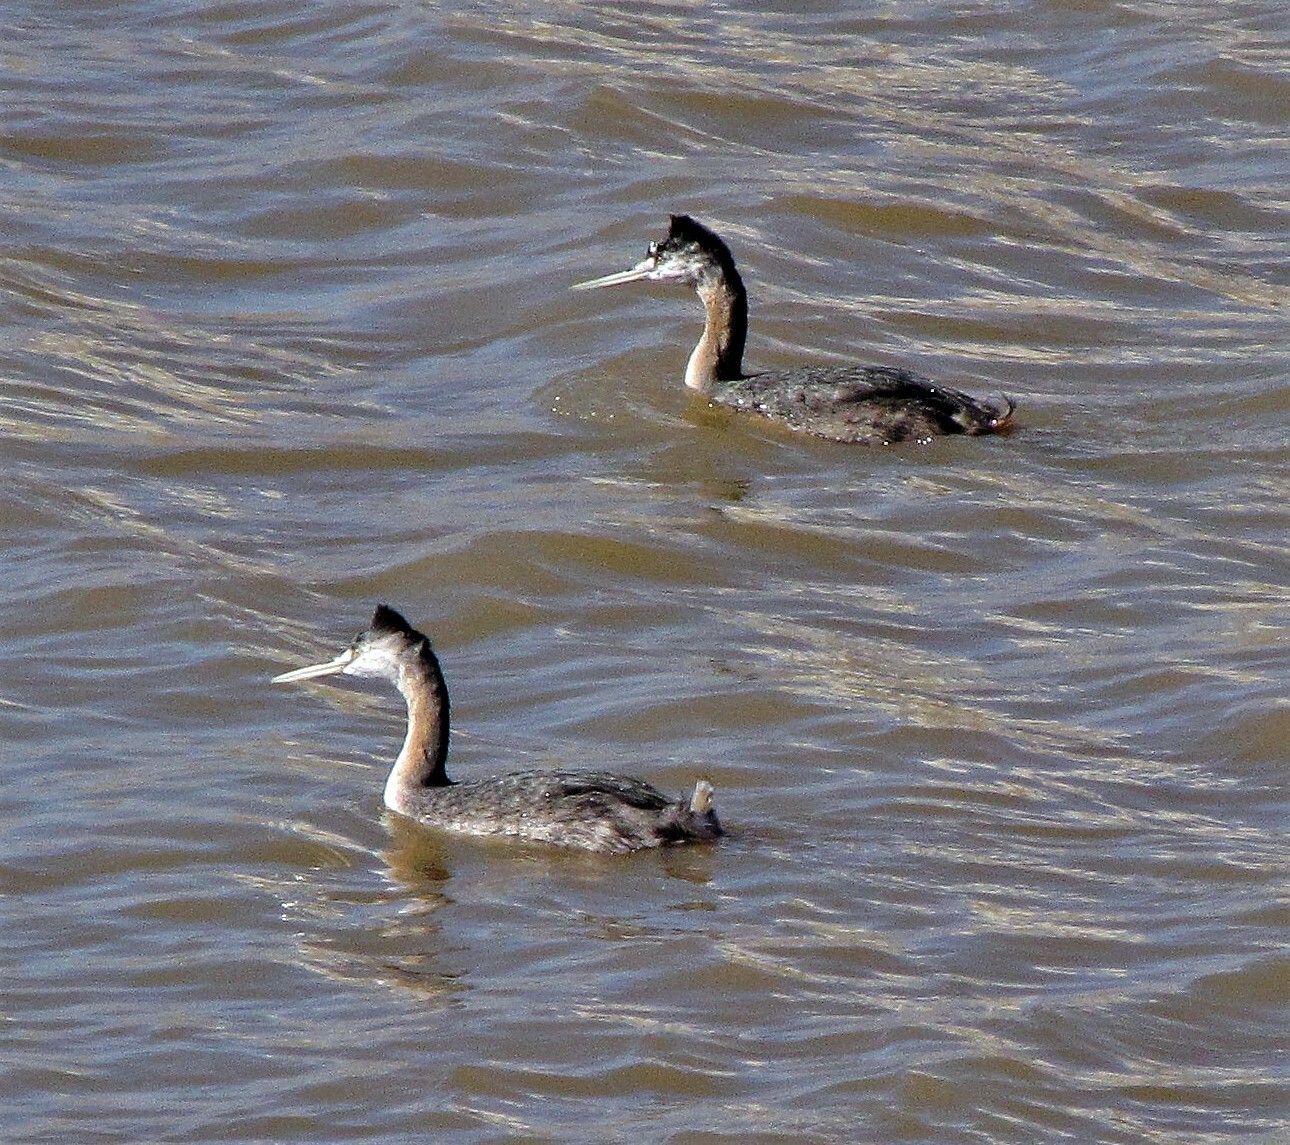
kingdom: Animalia
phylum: Chordata
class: Aves
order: Podicipediformes
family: Podicipedidae
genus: Podiceps
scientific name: Podiceps major
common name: Great grebe
